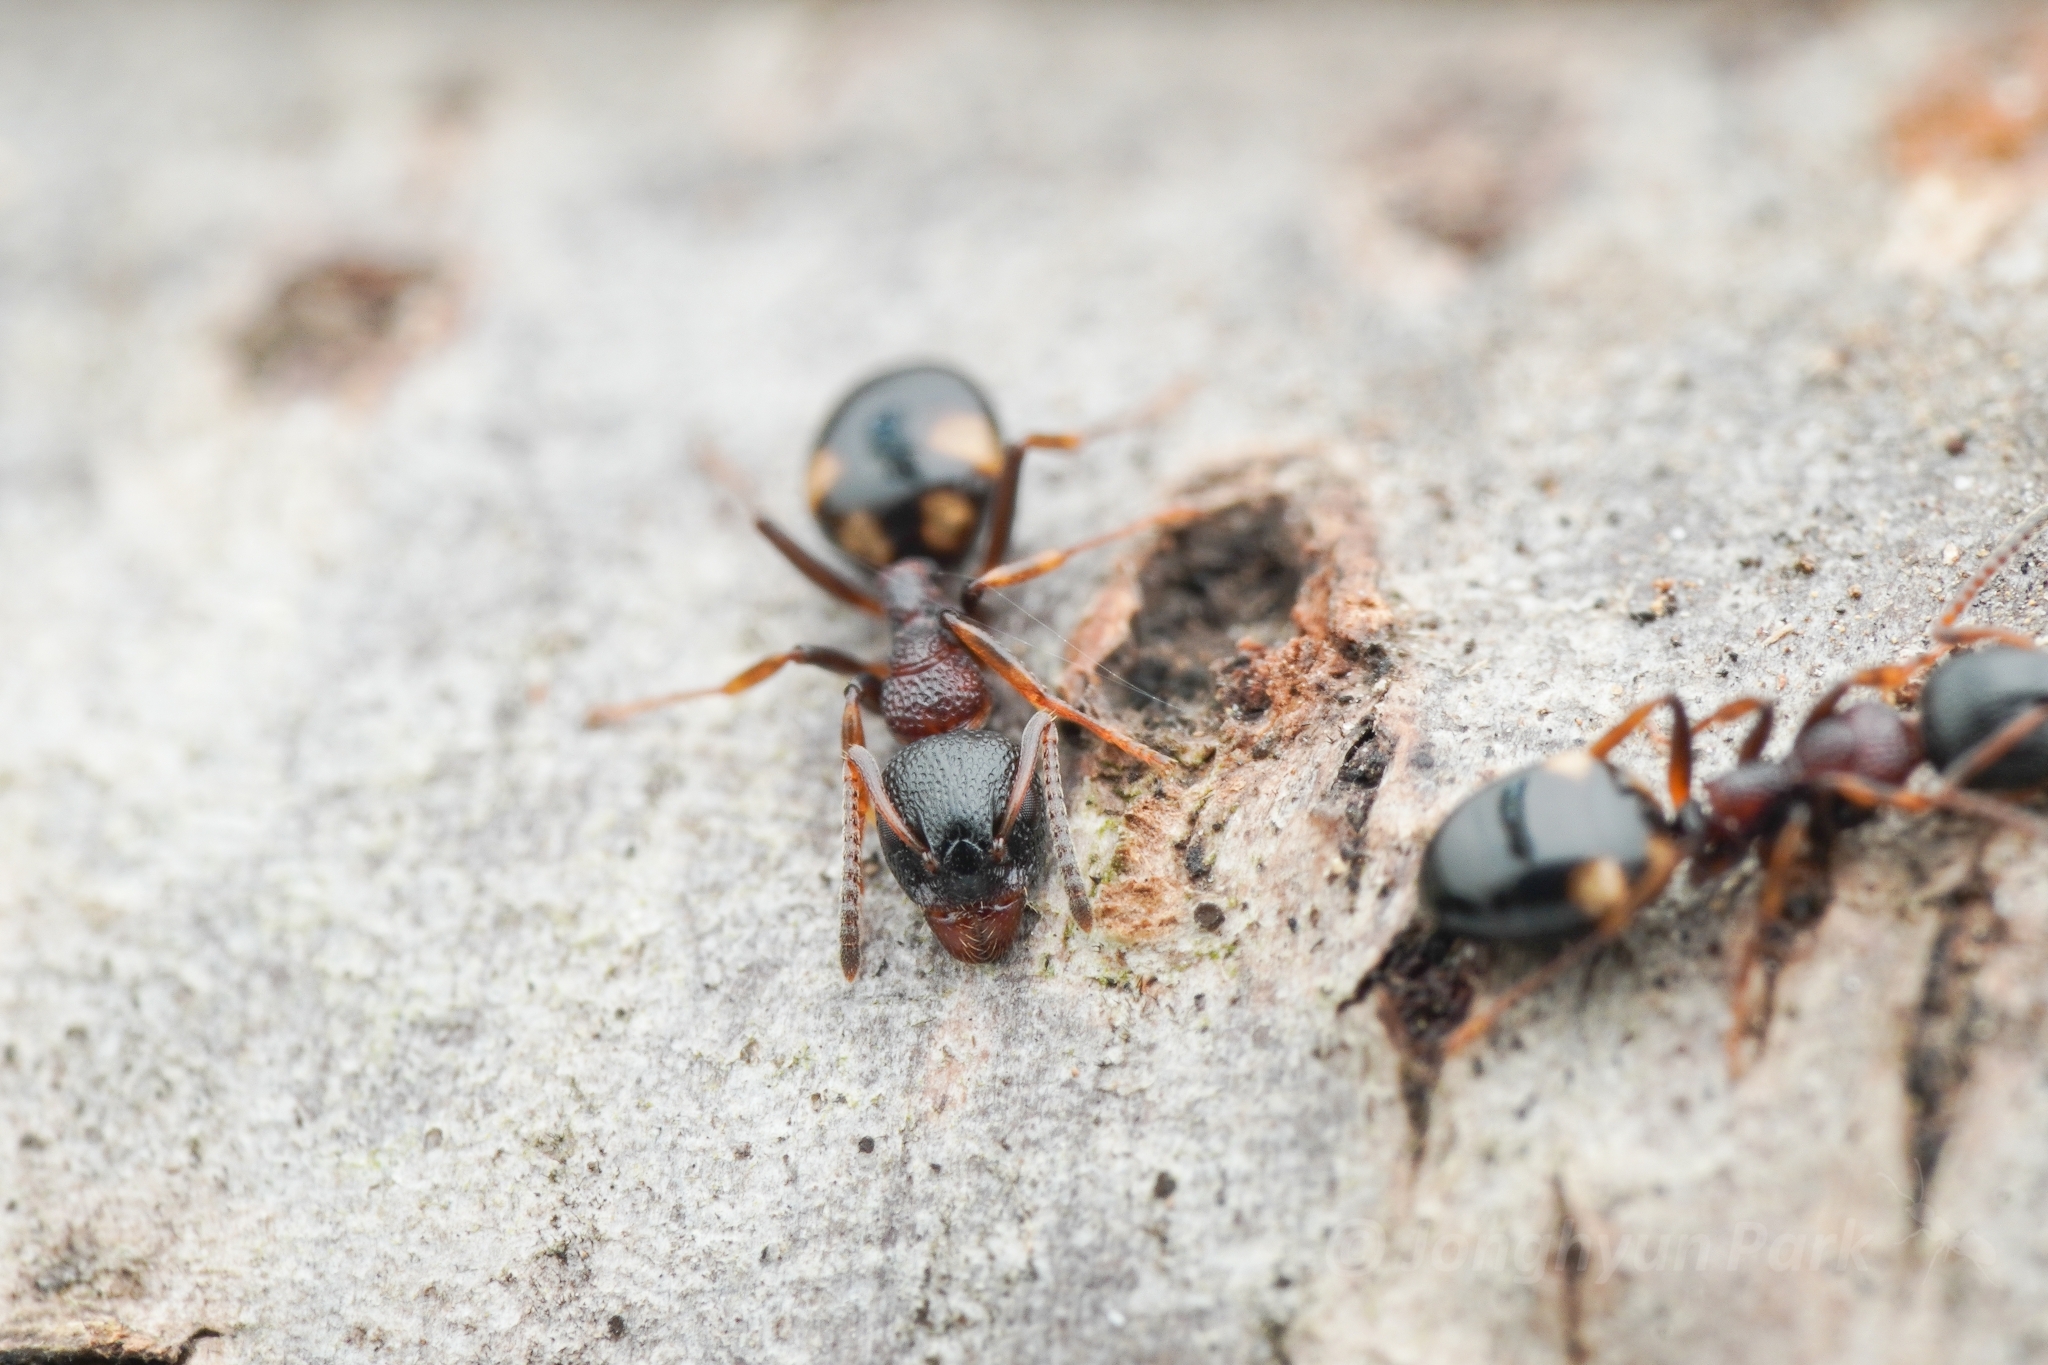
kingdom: Animalia
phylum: Arthropoda
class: Insecta
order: Hymenoptera
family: Formicidae
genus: Dolichoderus
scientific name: Dolichoderus sibiricus
